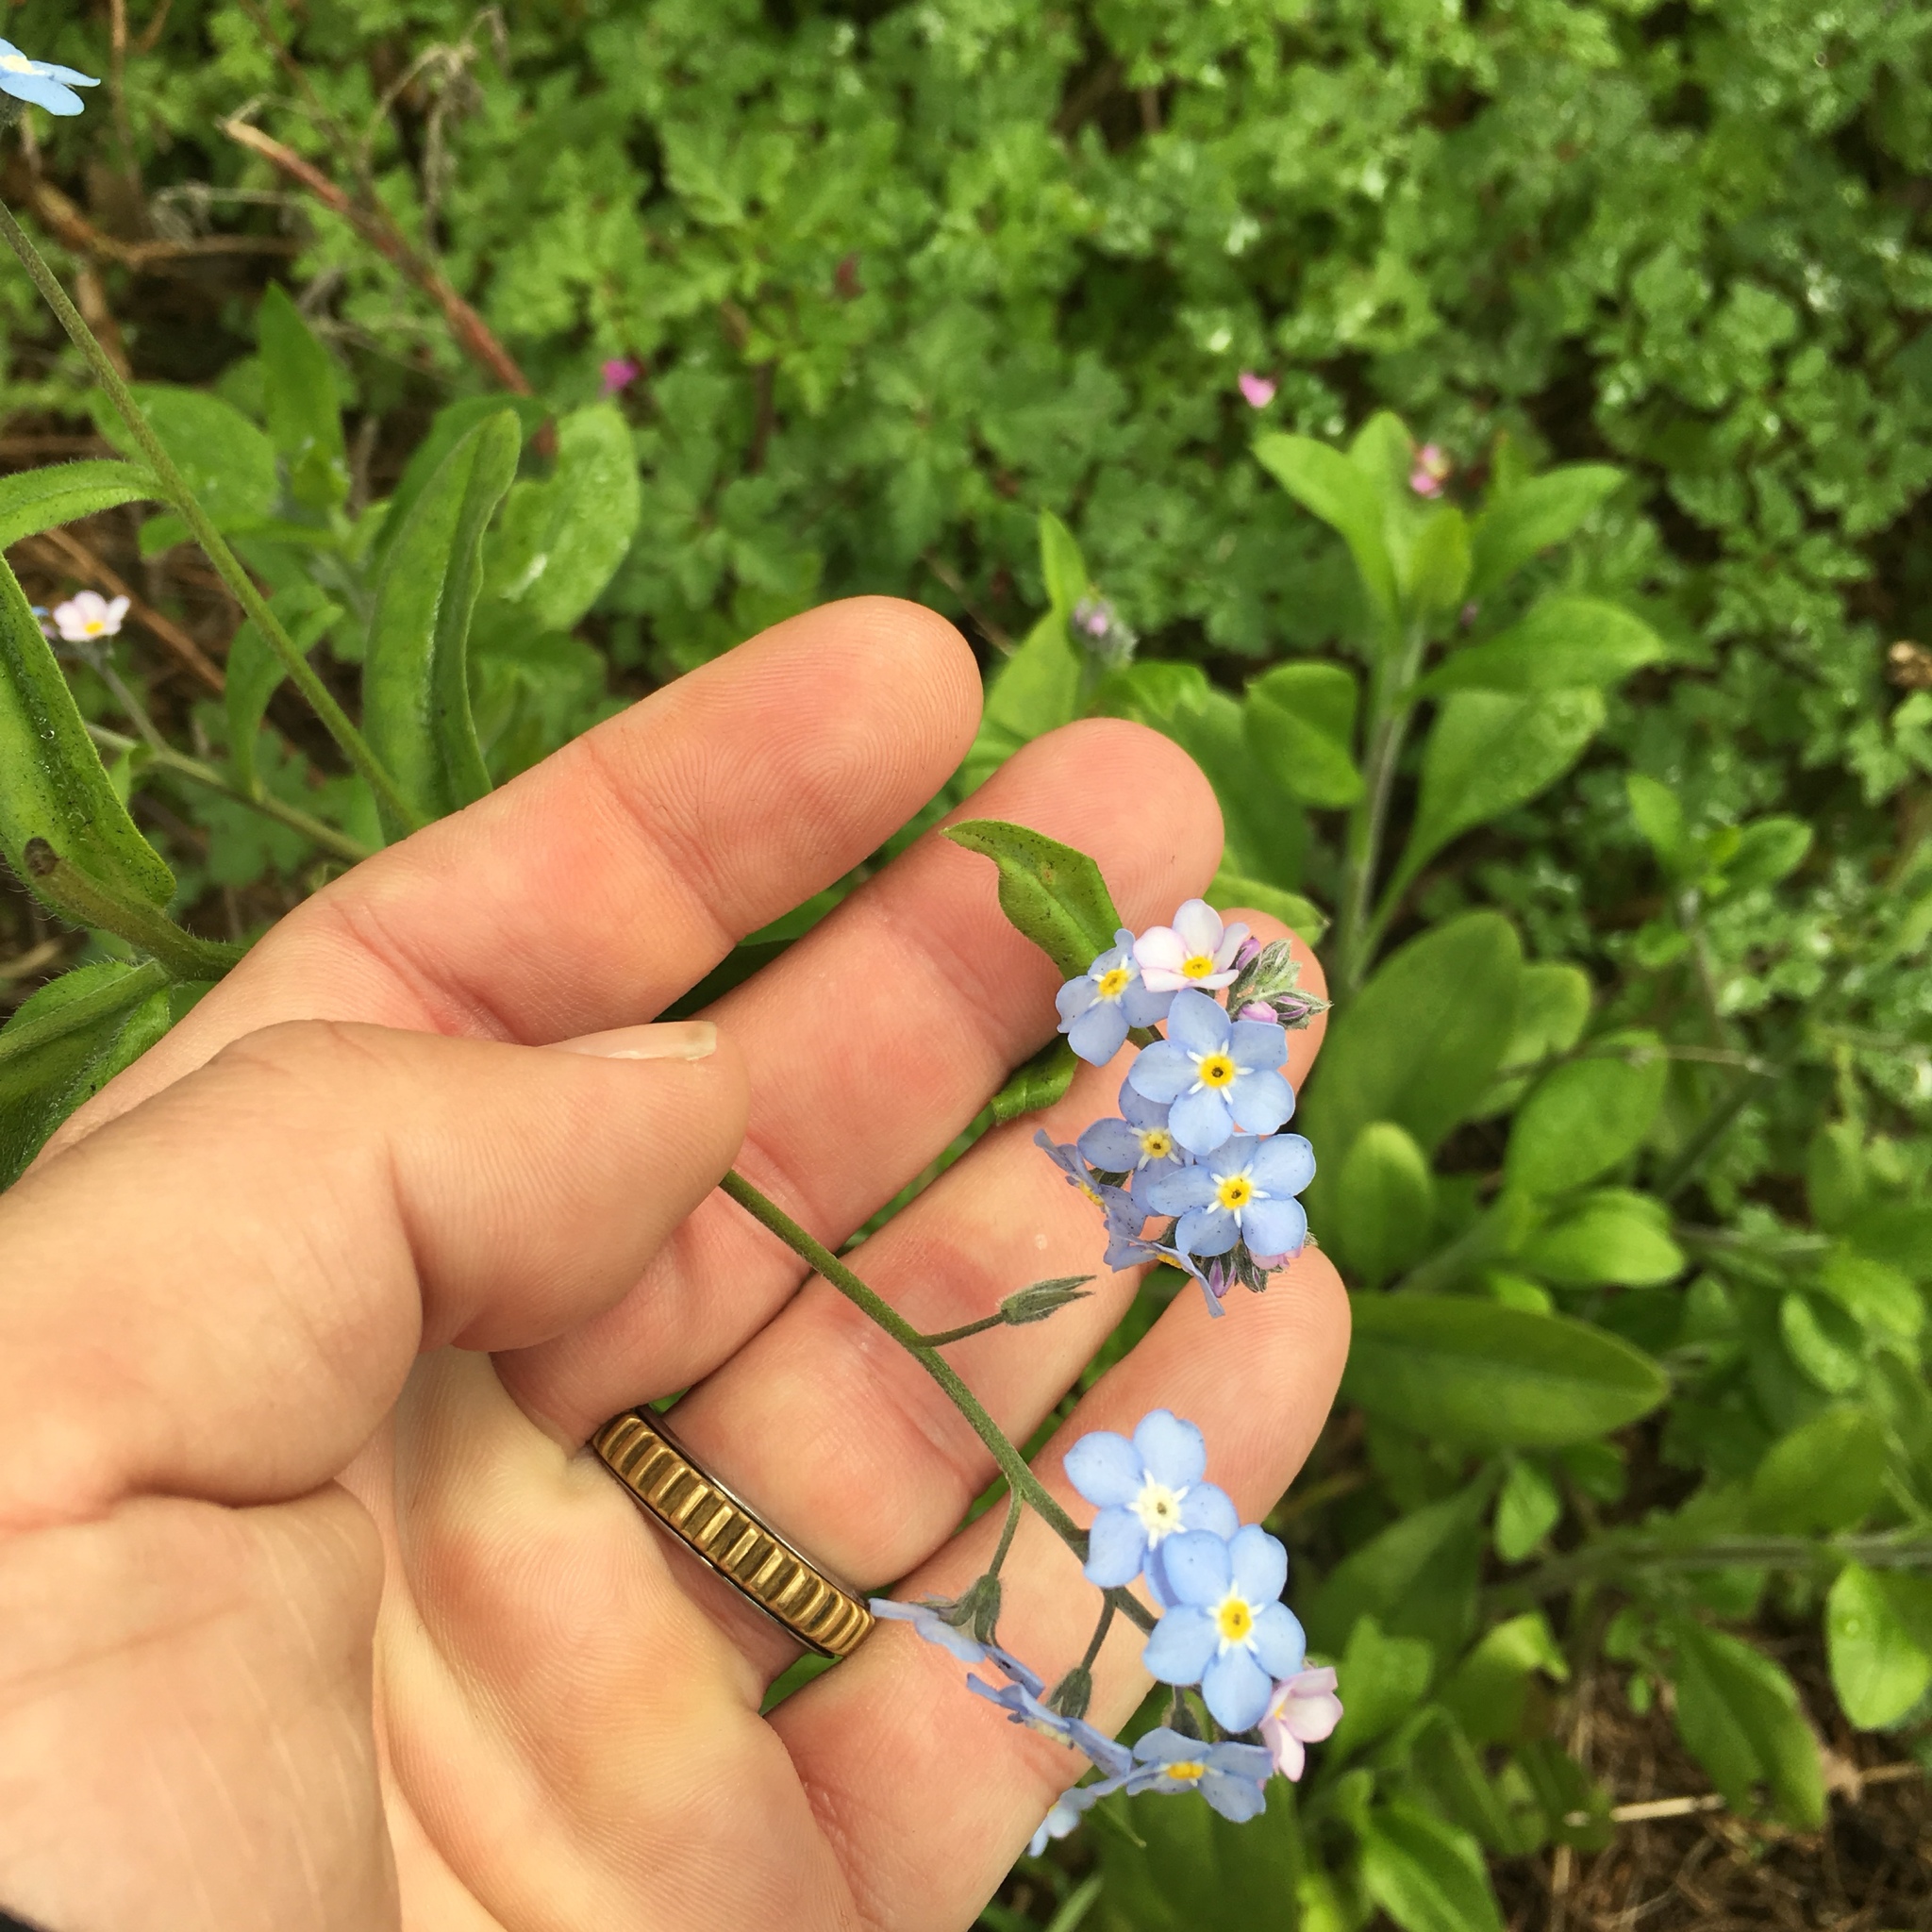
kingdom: Plantae
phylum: Tracheophyta
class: Magnoliopsida
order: Boraginales
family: Boraginaceae
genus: Myosotis
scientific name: Myosotis latifolia
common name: Broadleaf forget-me-not
